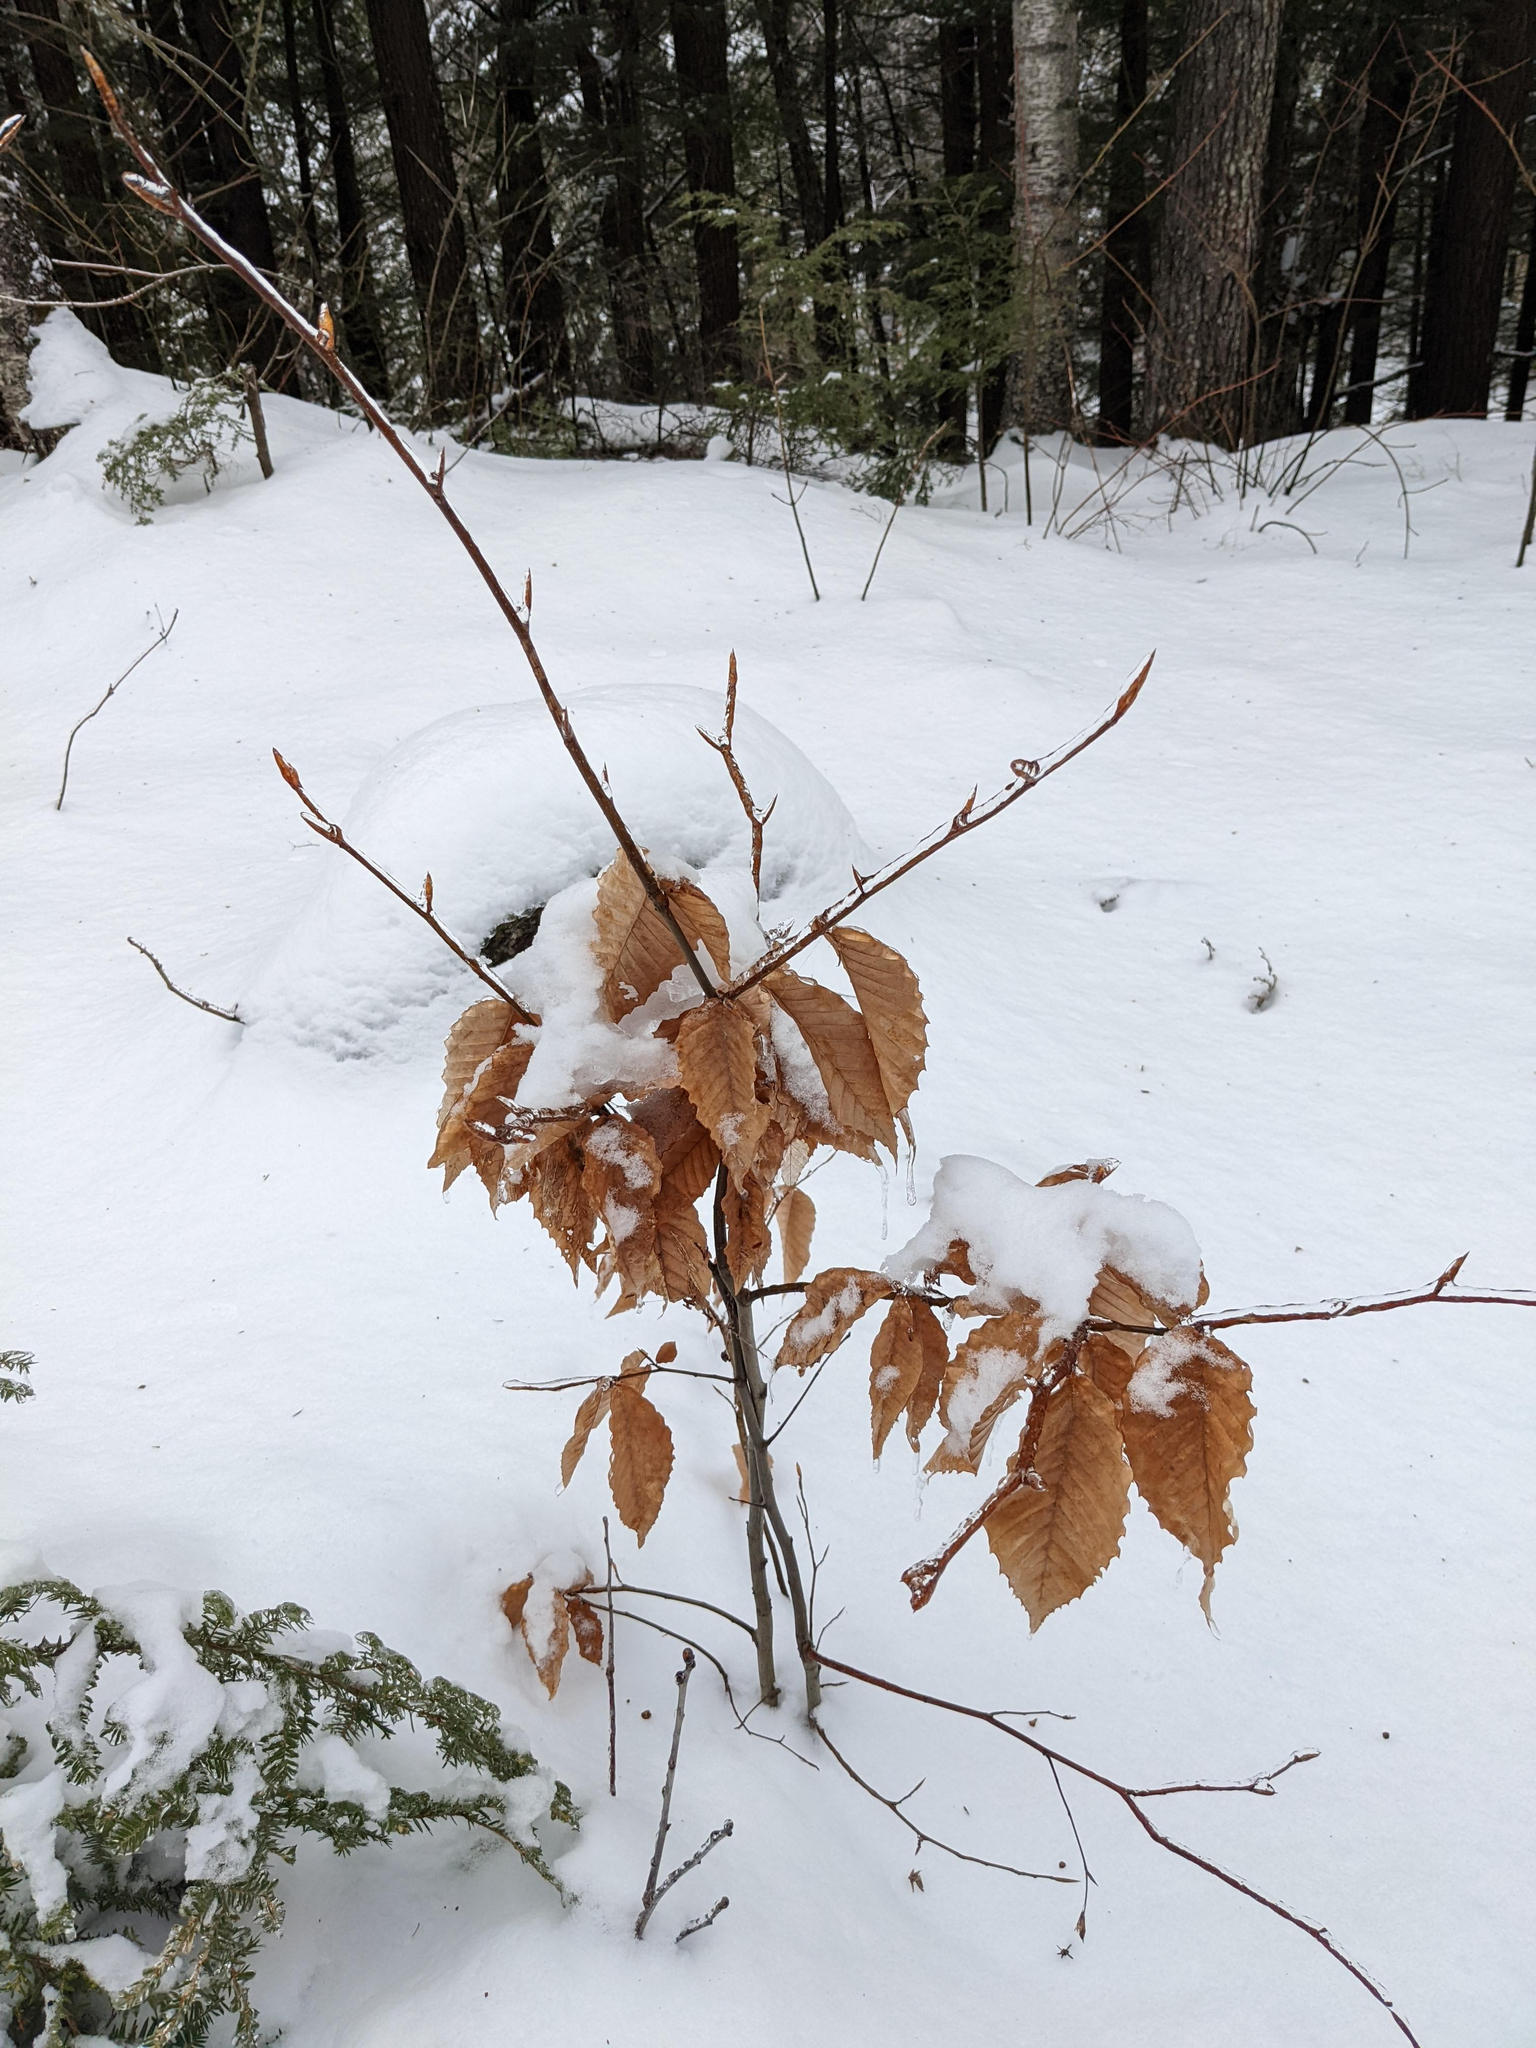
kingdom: Plantae
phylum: Tracheophyta
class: Magnoliopsida
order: Fagales
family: Fagaceae
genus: Fagus
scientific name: Fagus grandifolia
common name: American beech
